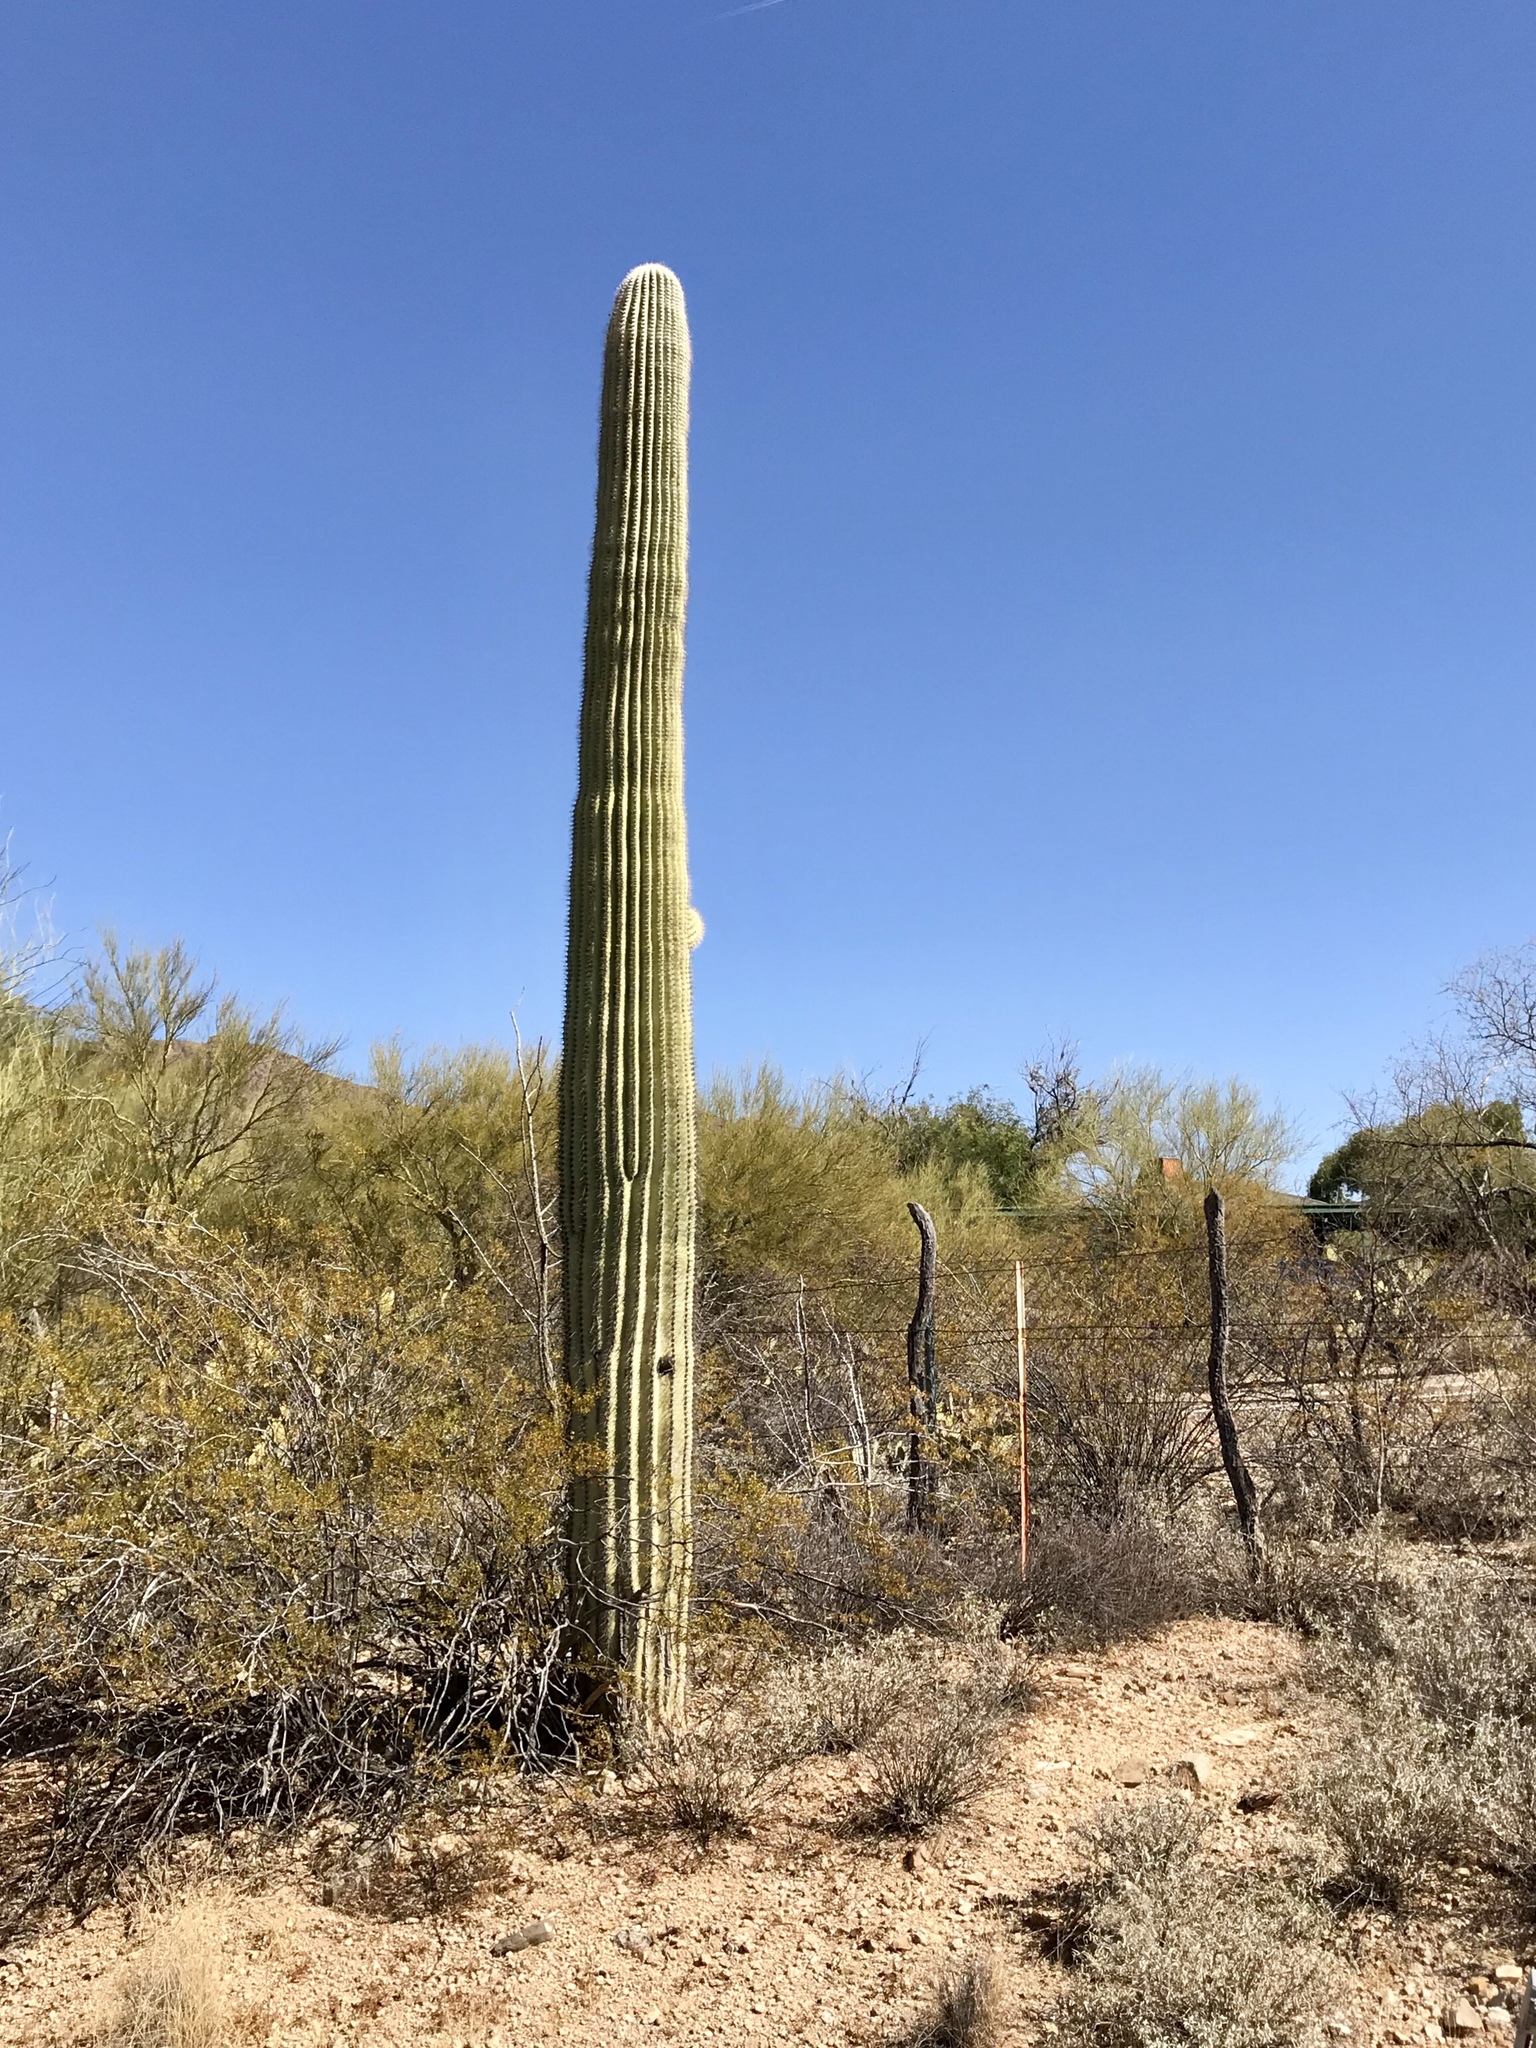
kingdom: Plantae
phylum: Tracheophyta
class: Magnoliopsida
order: Caryophyllales
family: Cactaceae
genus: Carnegiea
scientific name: Carnegiea gigantea
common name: Saguaro
